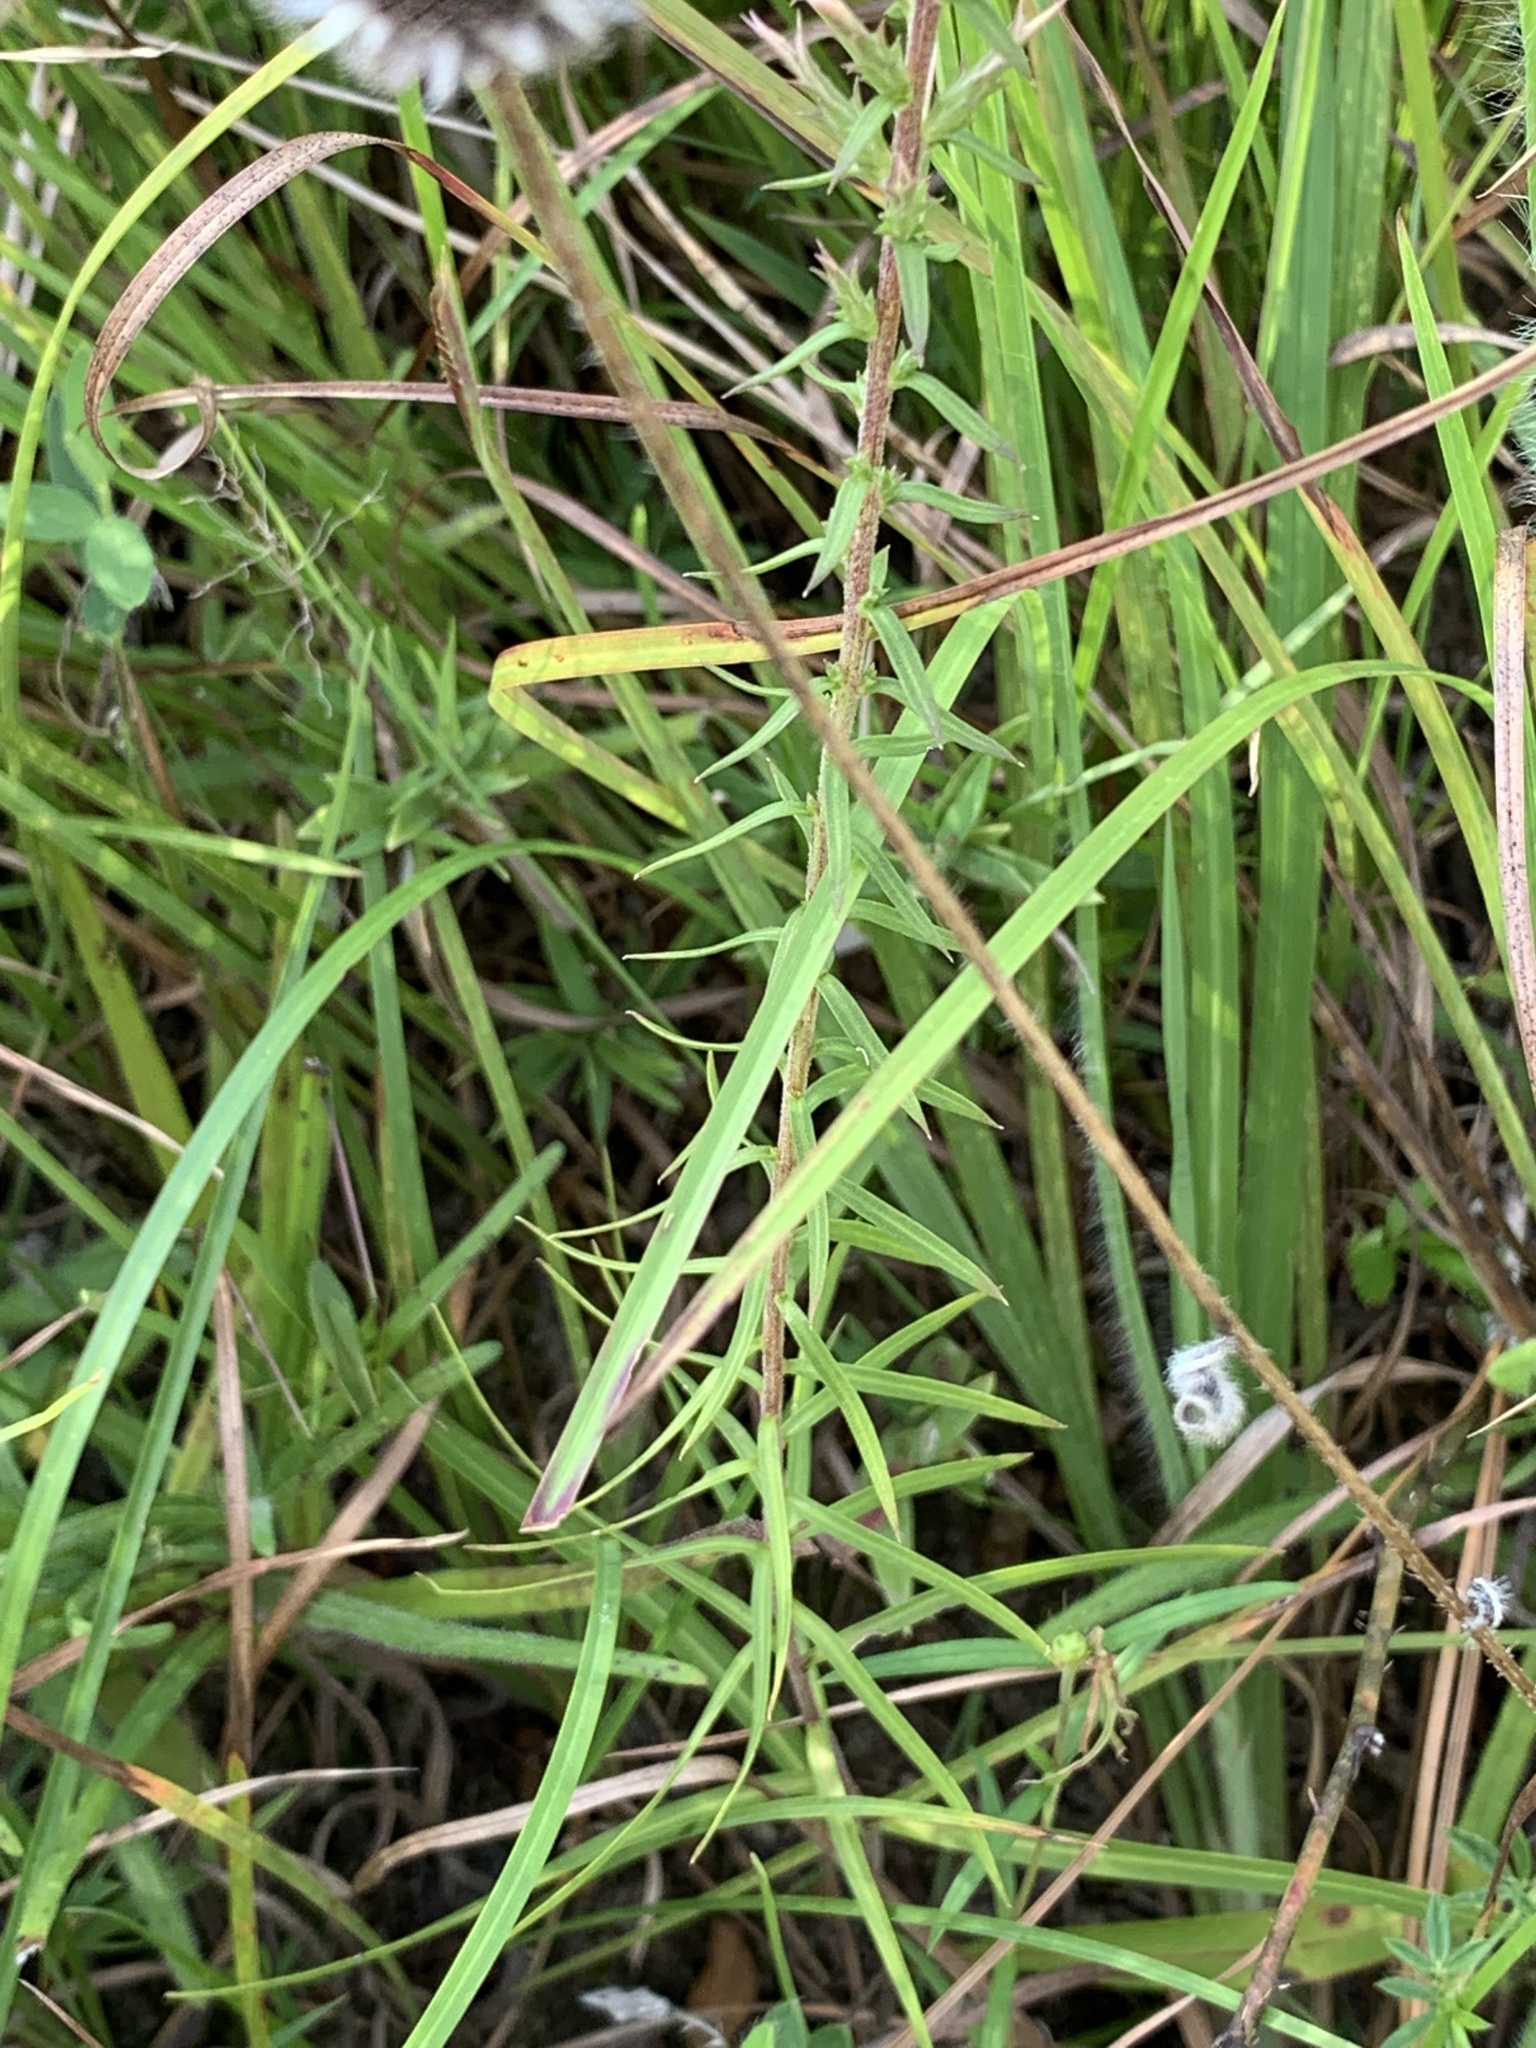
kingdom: Plantae
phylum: Tracheophyta
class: Magnoliopsida
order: Asterales
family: Asteraceae
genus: Liatris
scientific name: Liatris hesperelegans
